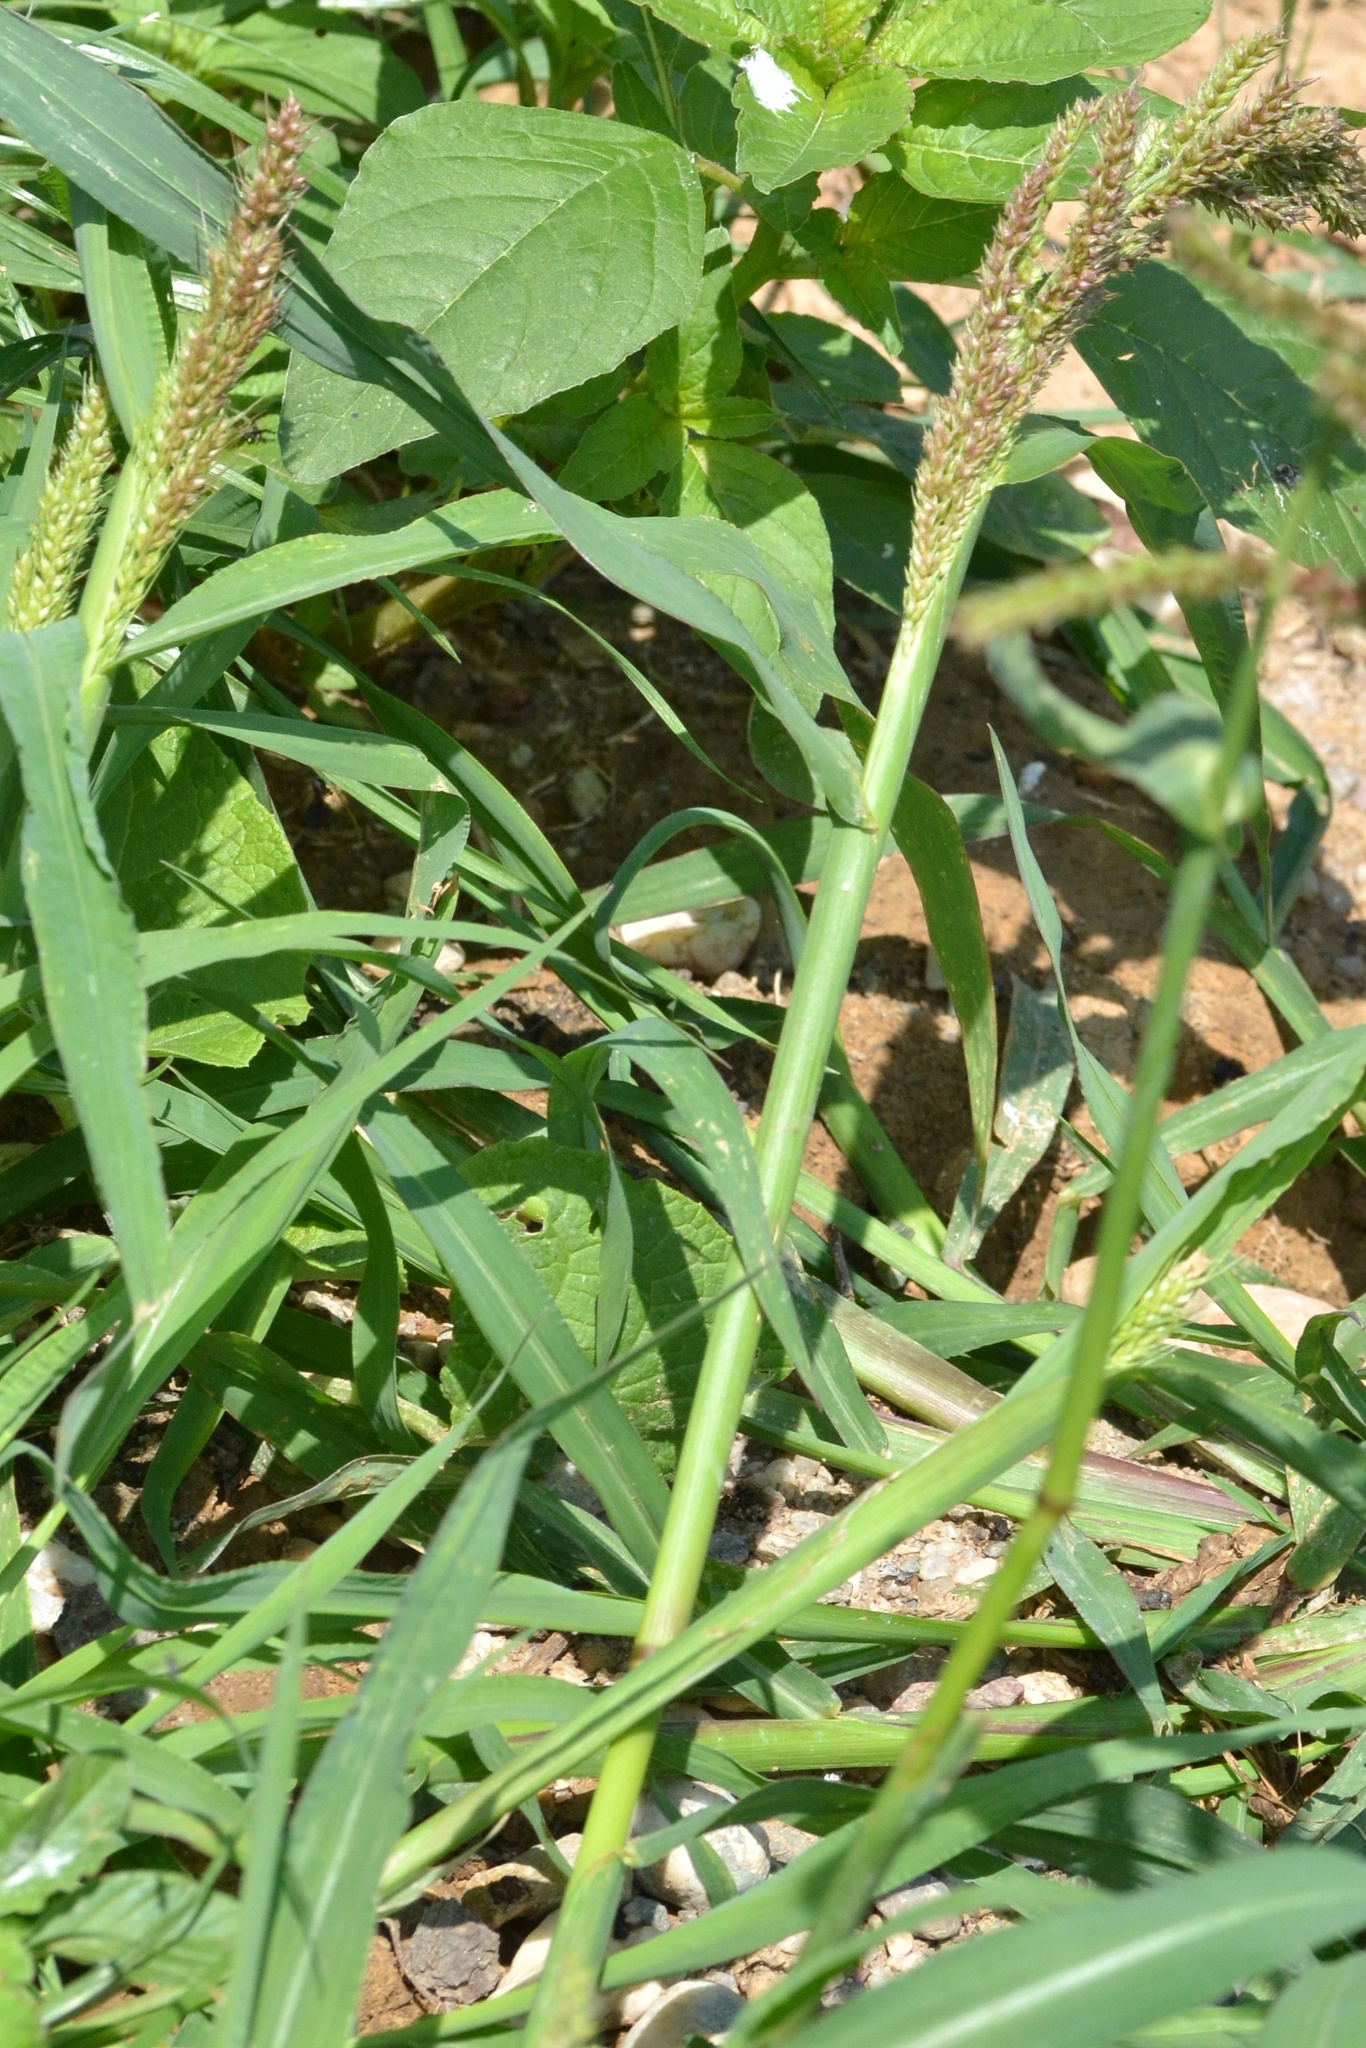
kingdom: Plantae
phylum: Tracheophyta
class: Liliopsida
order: Poales
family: Poaceae
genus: Echinochloa
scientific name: Echinochloa crus-galli
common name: Cockspur
